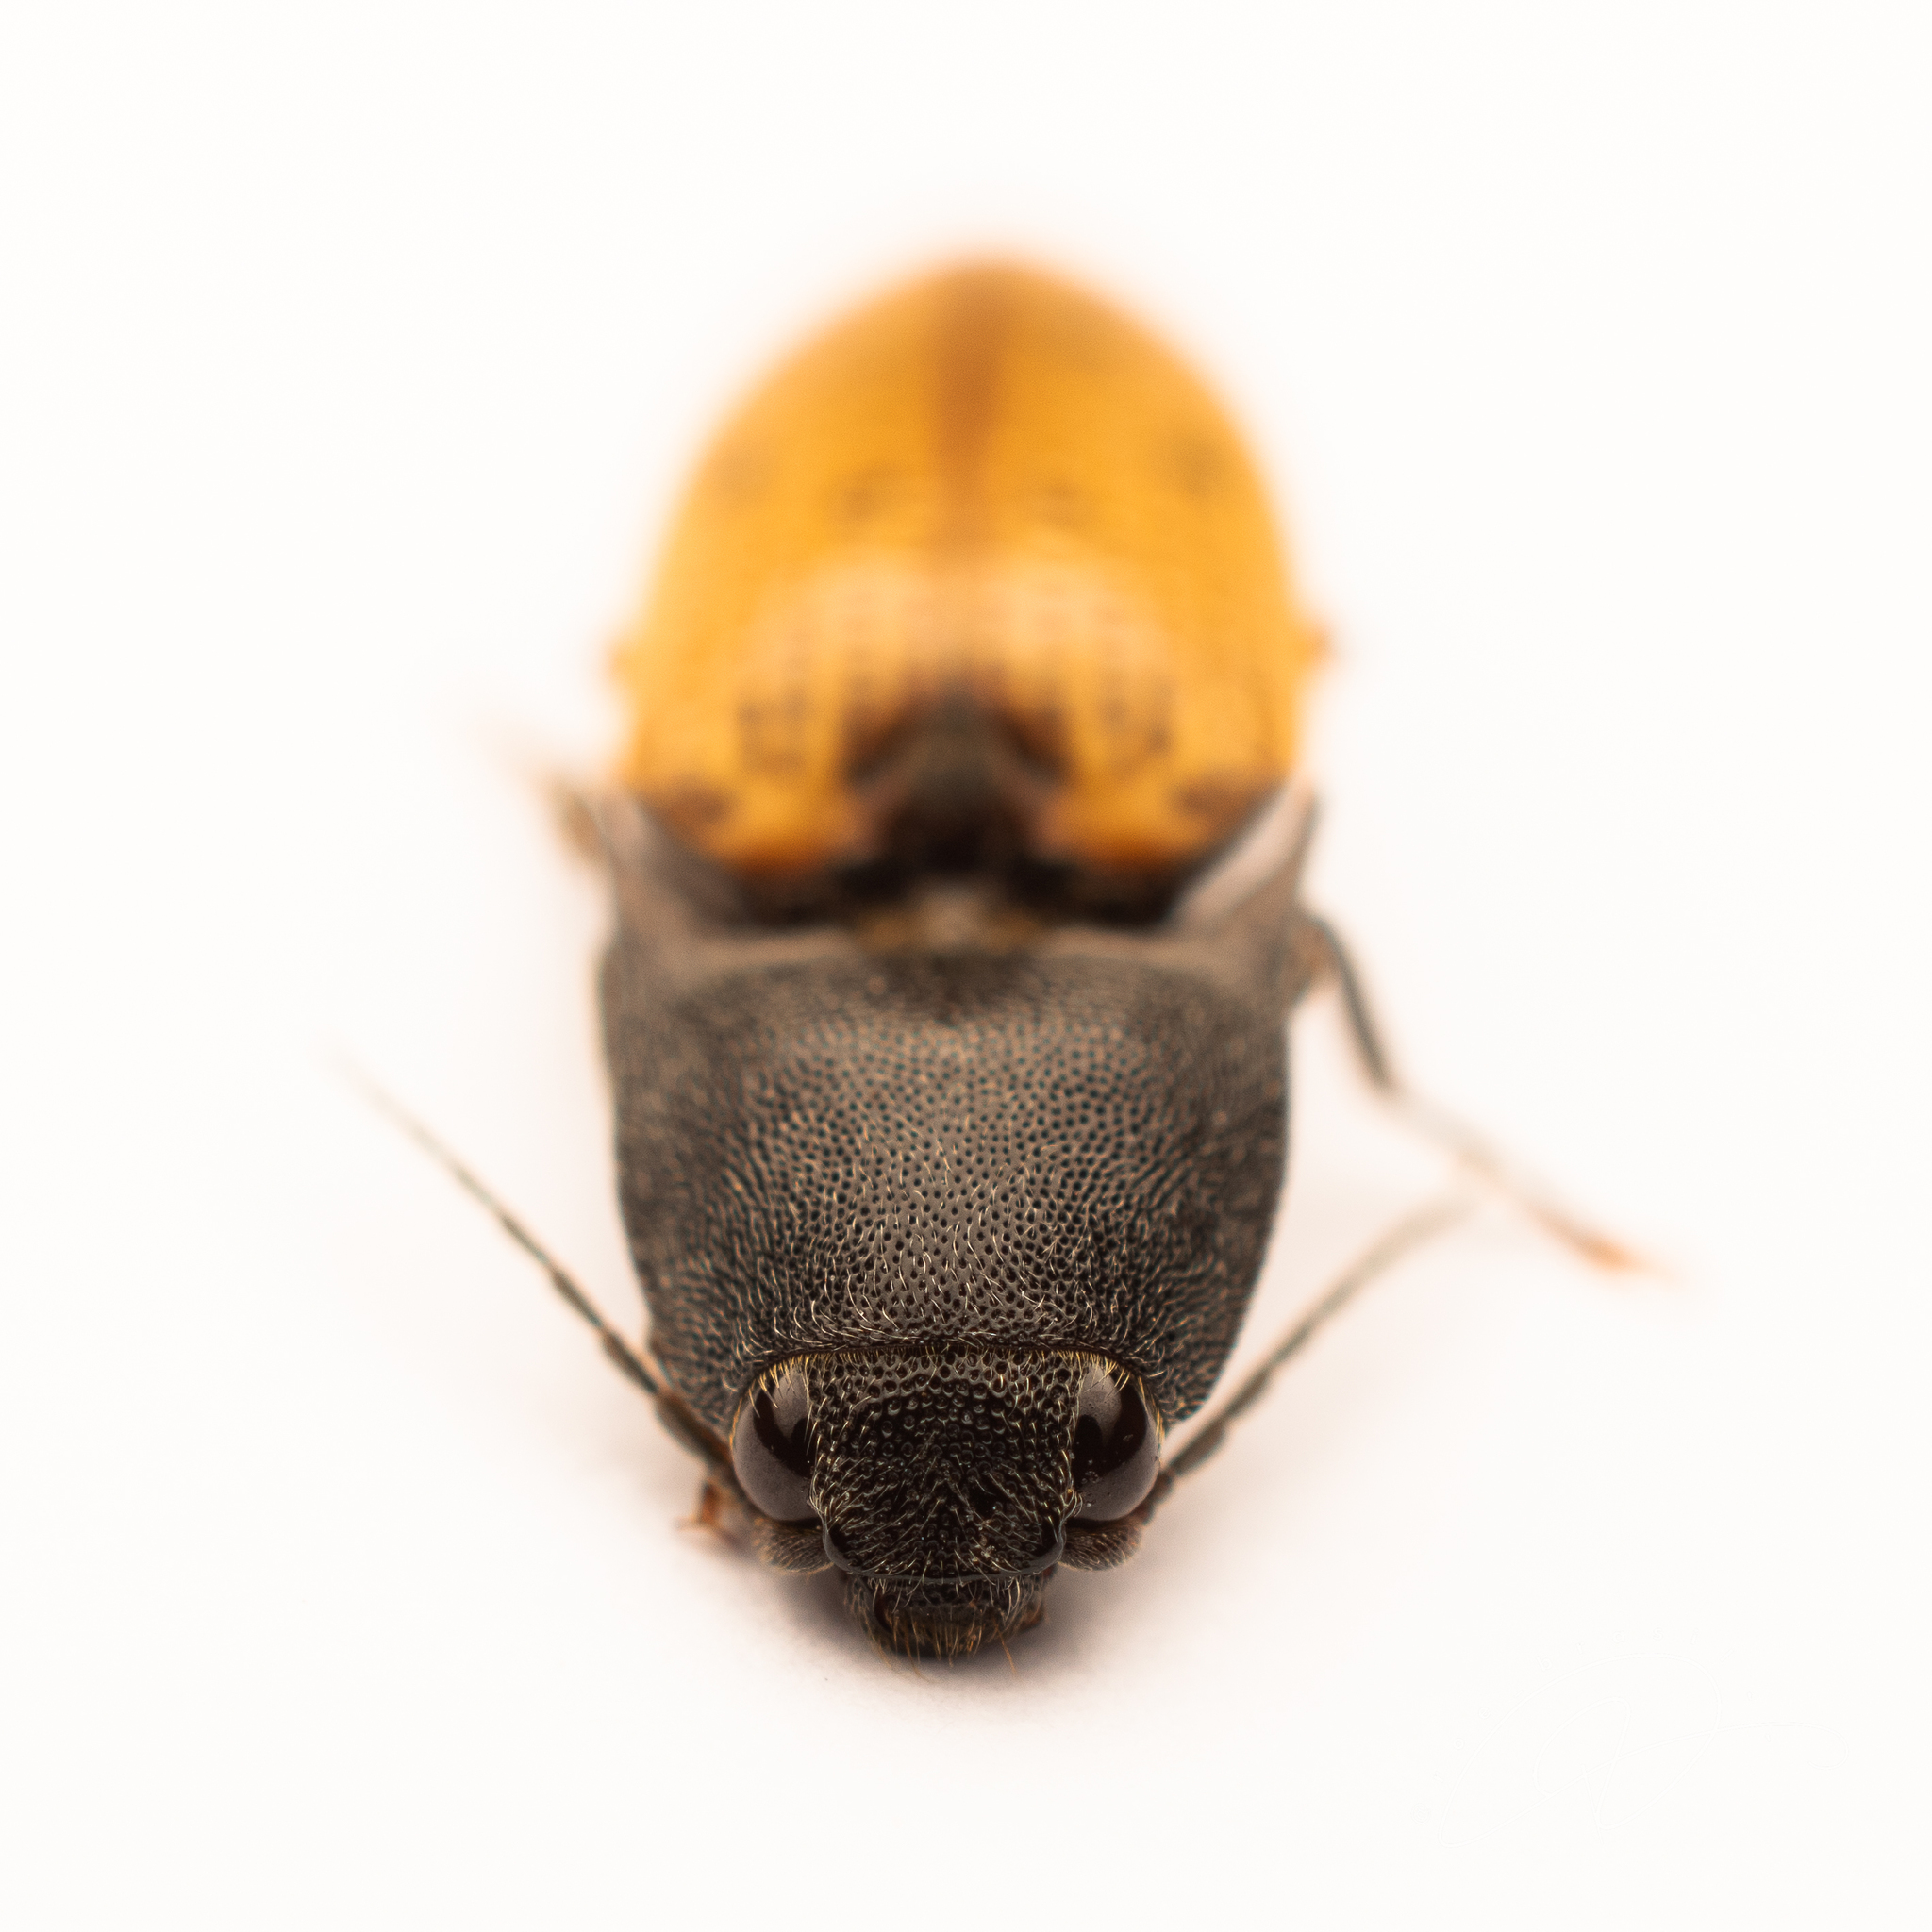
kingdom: Animalia
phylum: Arthropoda
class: Insecta
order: Coleoptera
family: Elateridae
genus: Monocrepidius
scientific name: Monocrepidius
